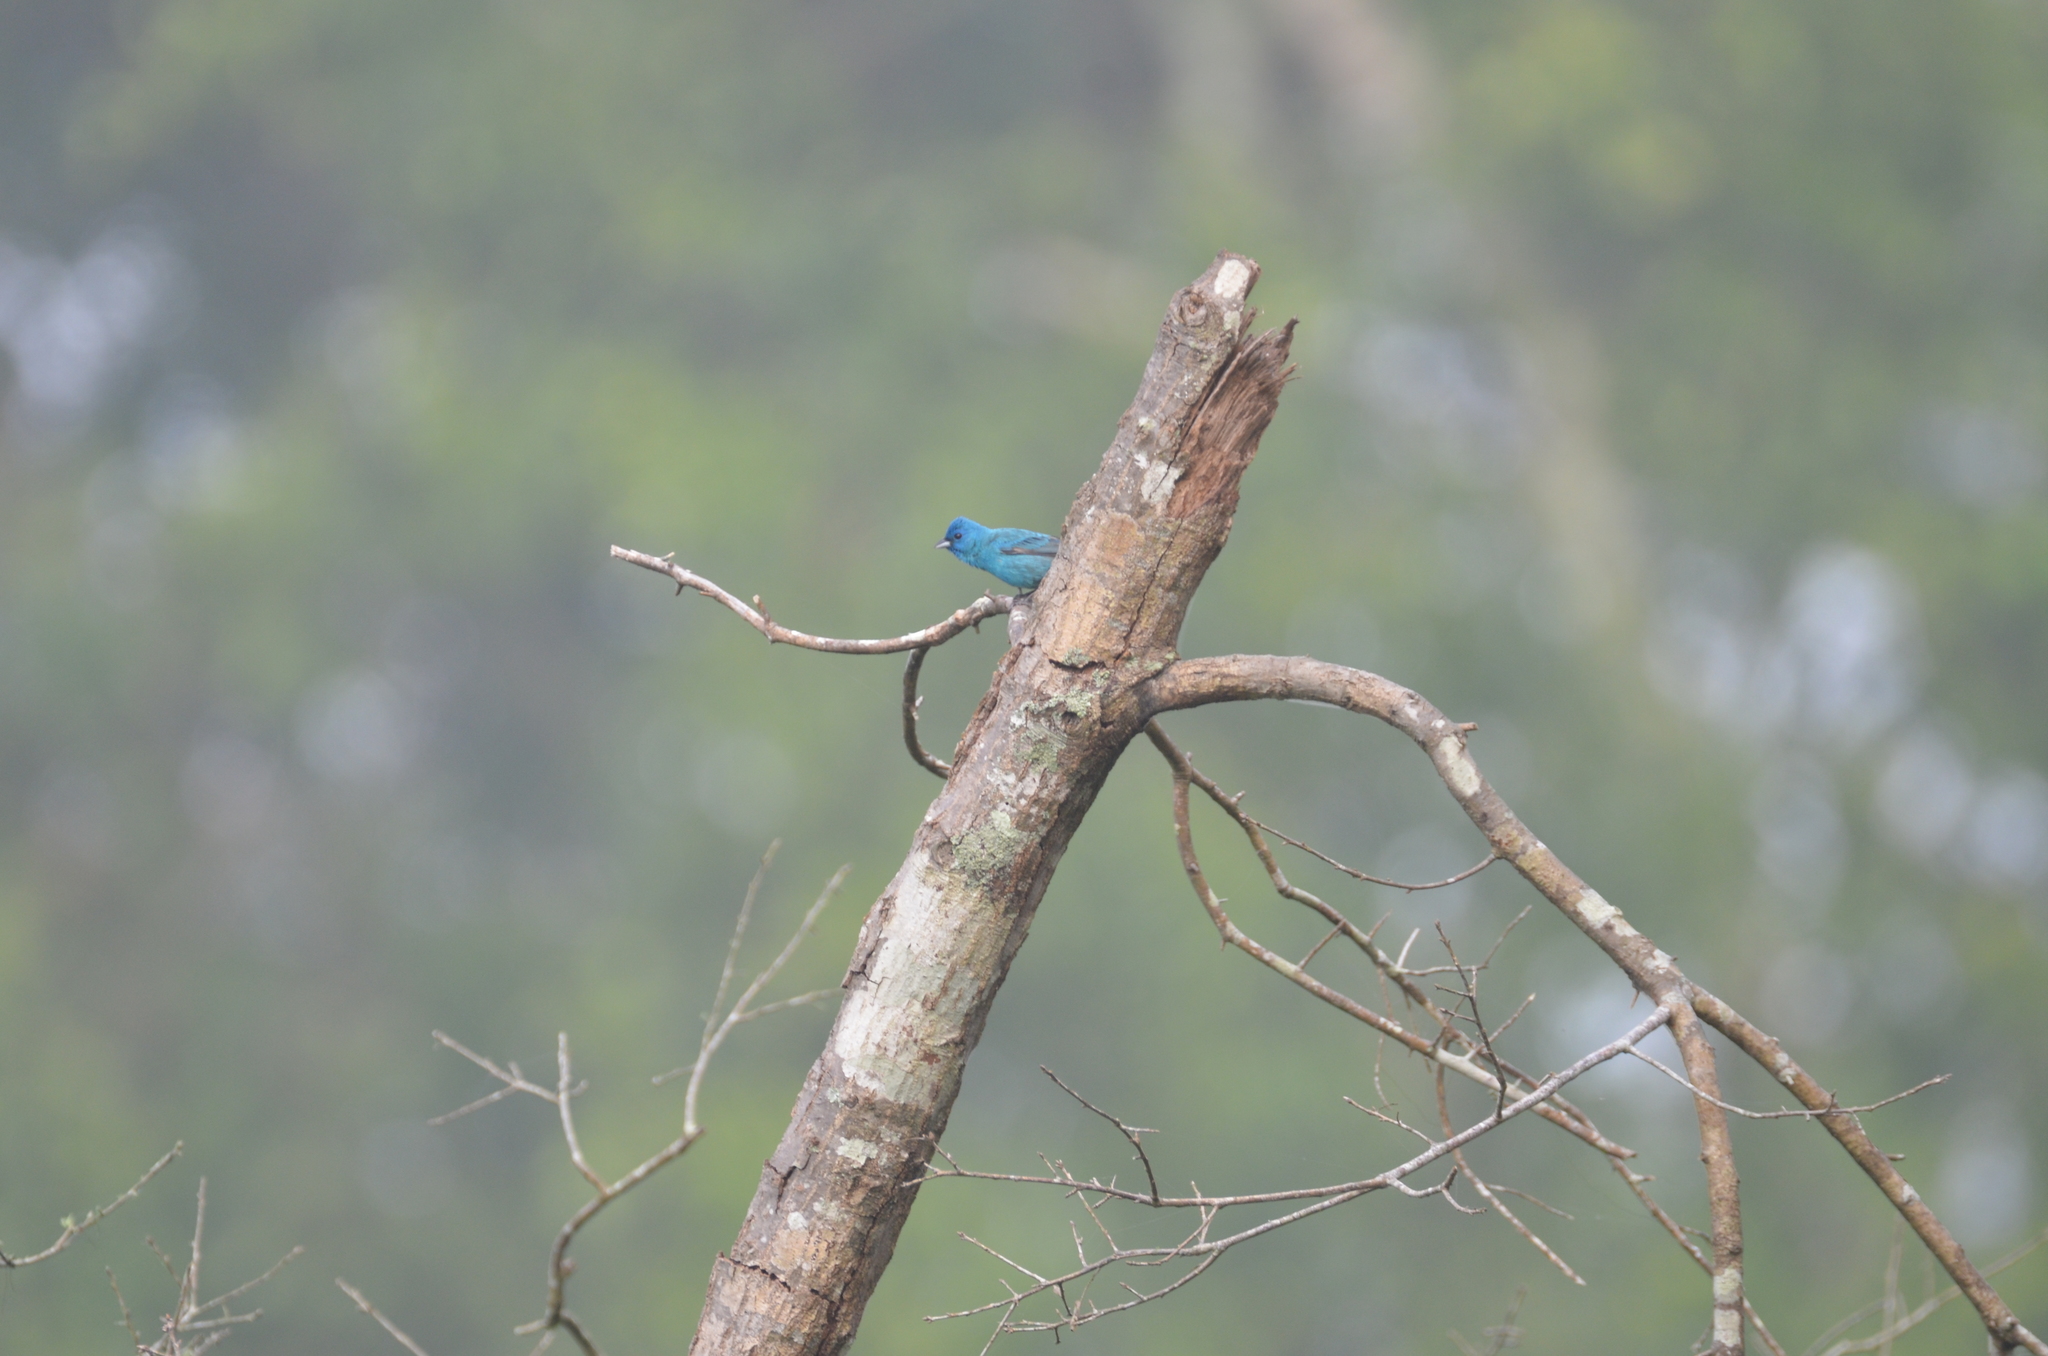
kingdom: Animalia
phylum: Chordata
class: Aves
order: Passeriformes
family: Cardinalidae
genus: Passerina
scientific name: Passerina cyanea
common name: Indigo bunting
